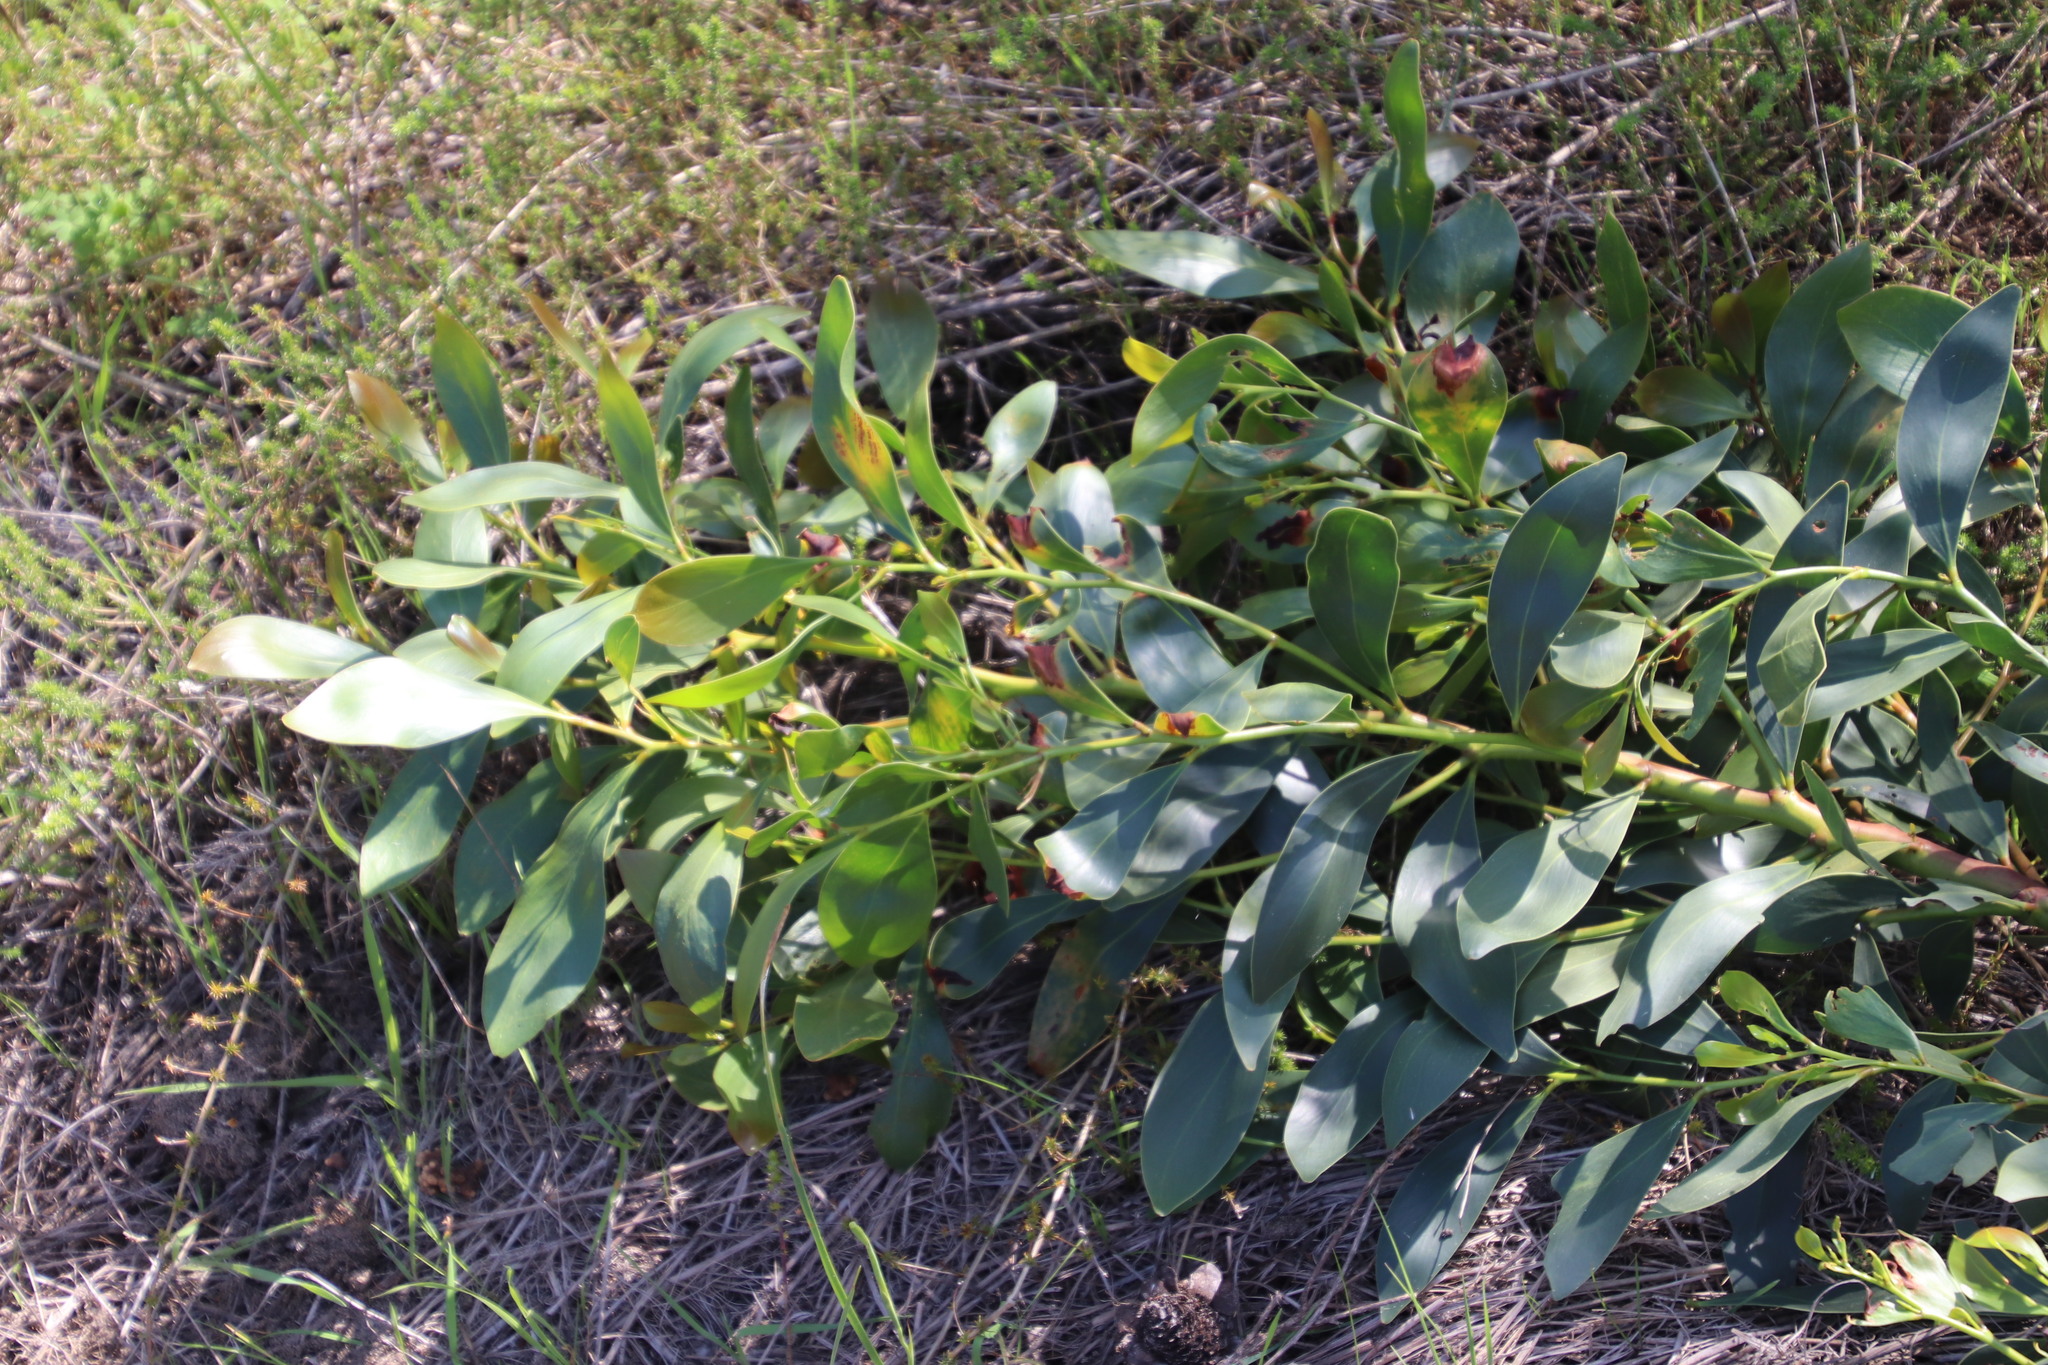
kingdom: Plantae
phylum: Tracheophyta
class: Magnoliopsida
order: Fabales
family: Fabaceae
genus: Acacia
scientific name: Acacia pycnantha
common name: Golden wattle
